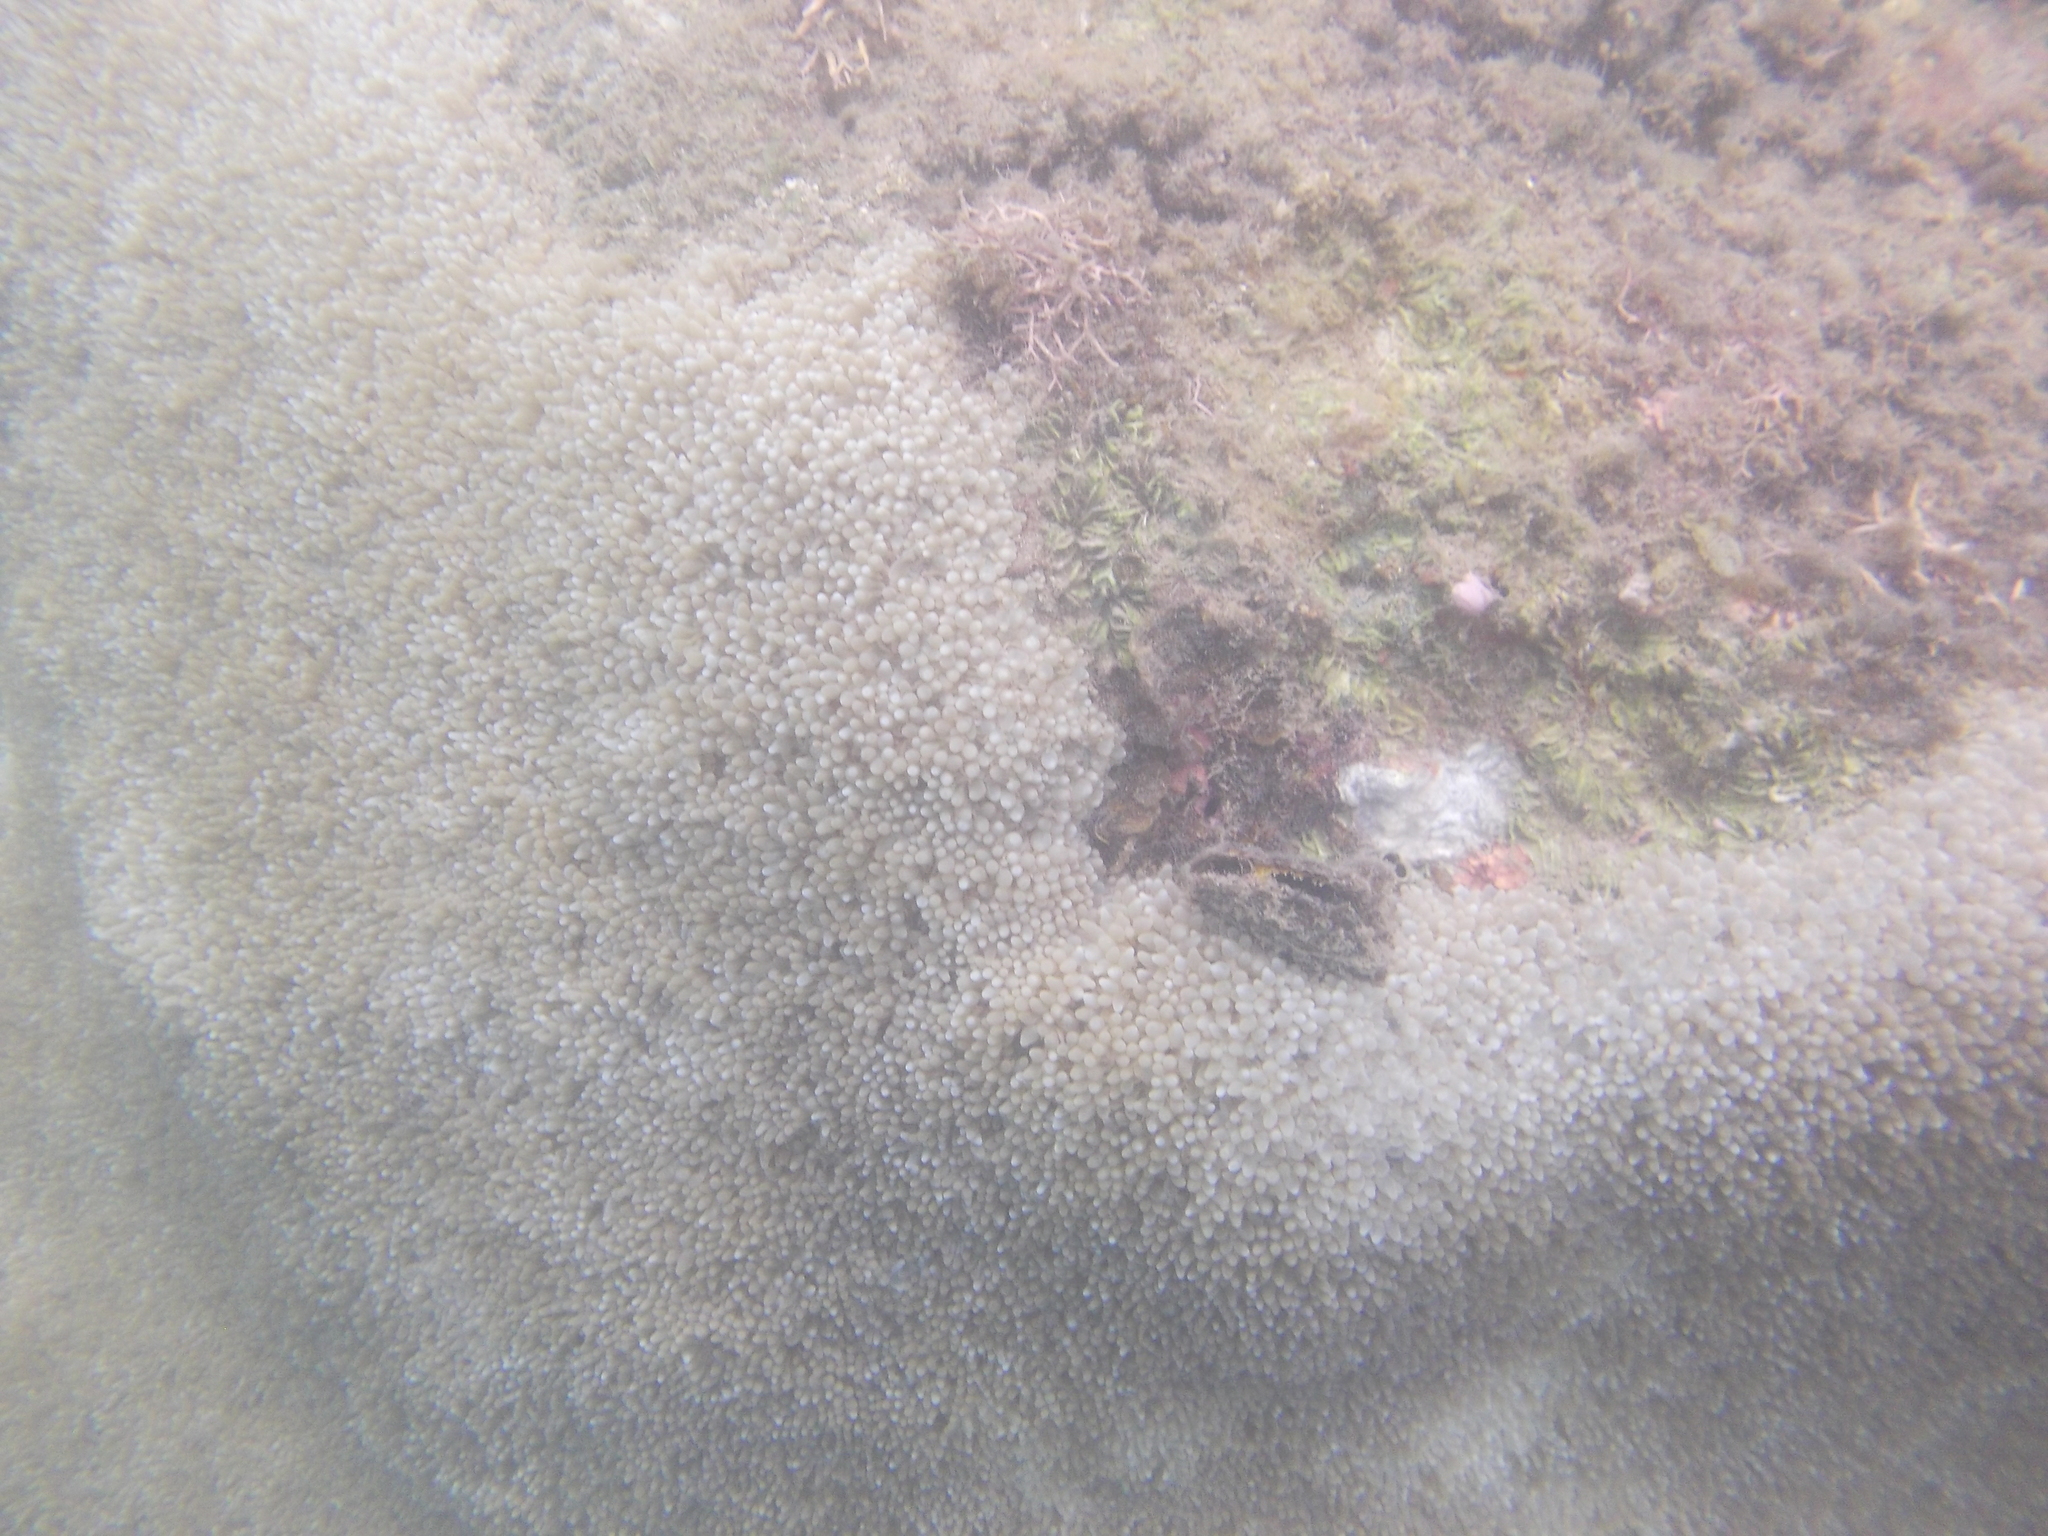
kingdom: Animalia
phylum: Cnidaria
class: Anthozoa
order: Scleractinia
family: Plerogyridae
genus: Physogyra
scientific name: Physogyra lichtensteini
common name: Tipped bubblegum coral
